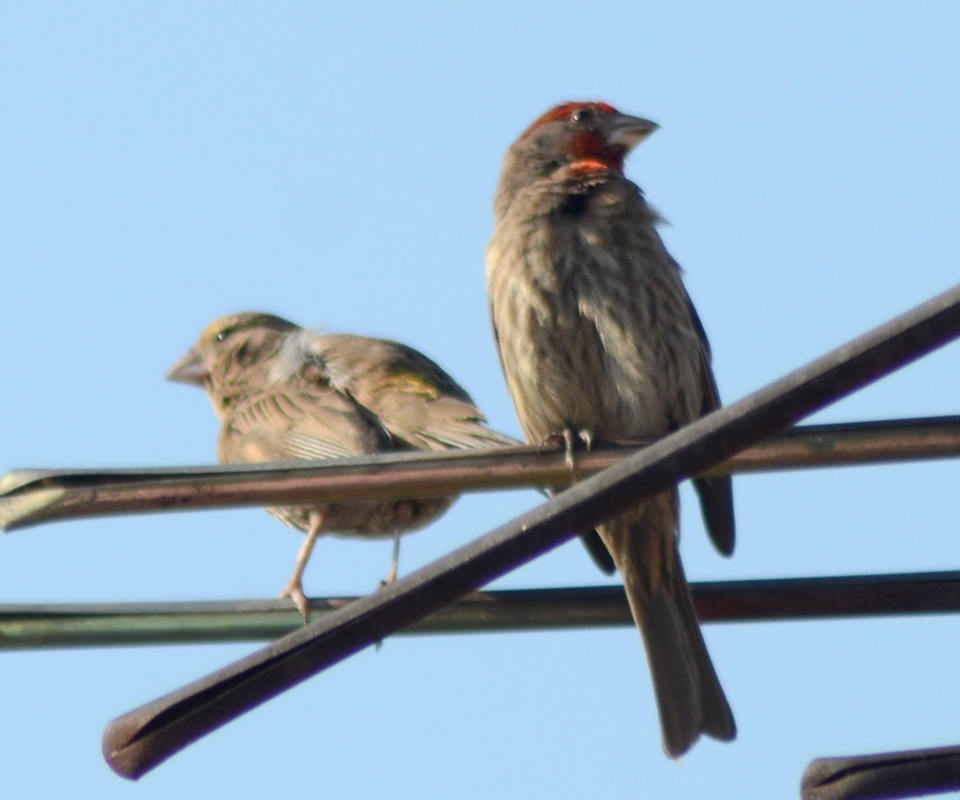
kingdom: Animalia
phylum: Chordata
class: Aves
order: Passeriformes
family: Fringillidae
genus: Haemorhous
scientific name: Haemorhous mexicanus
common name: House finch
